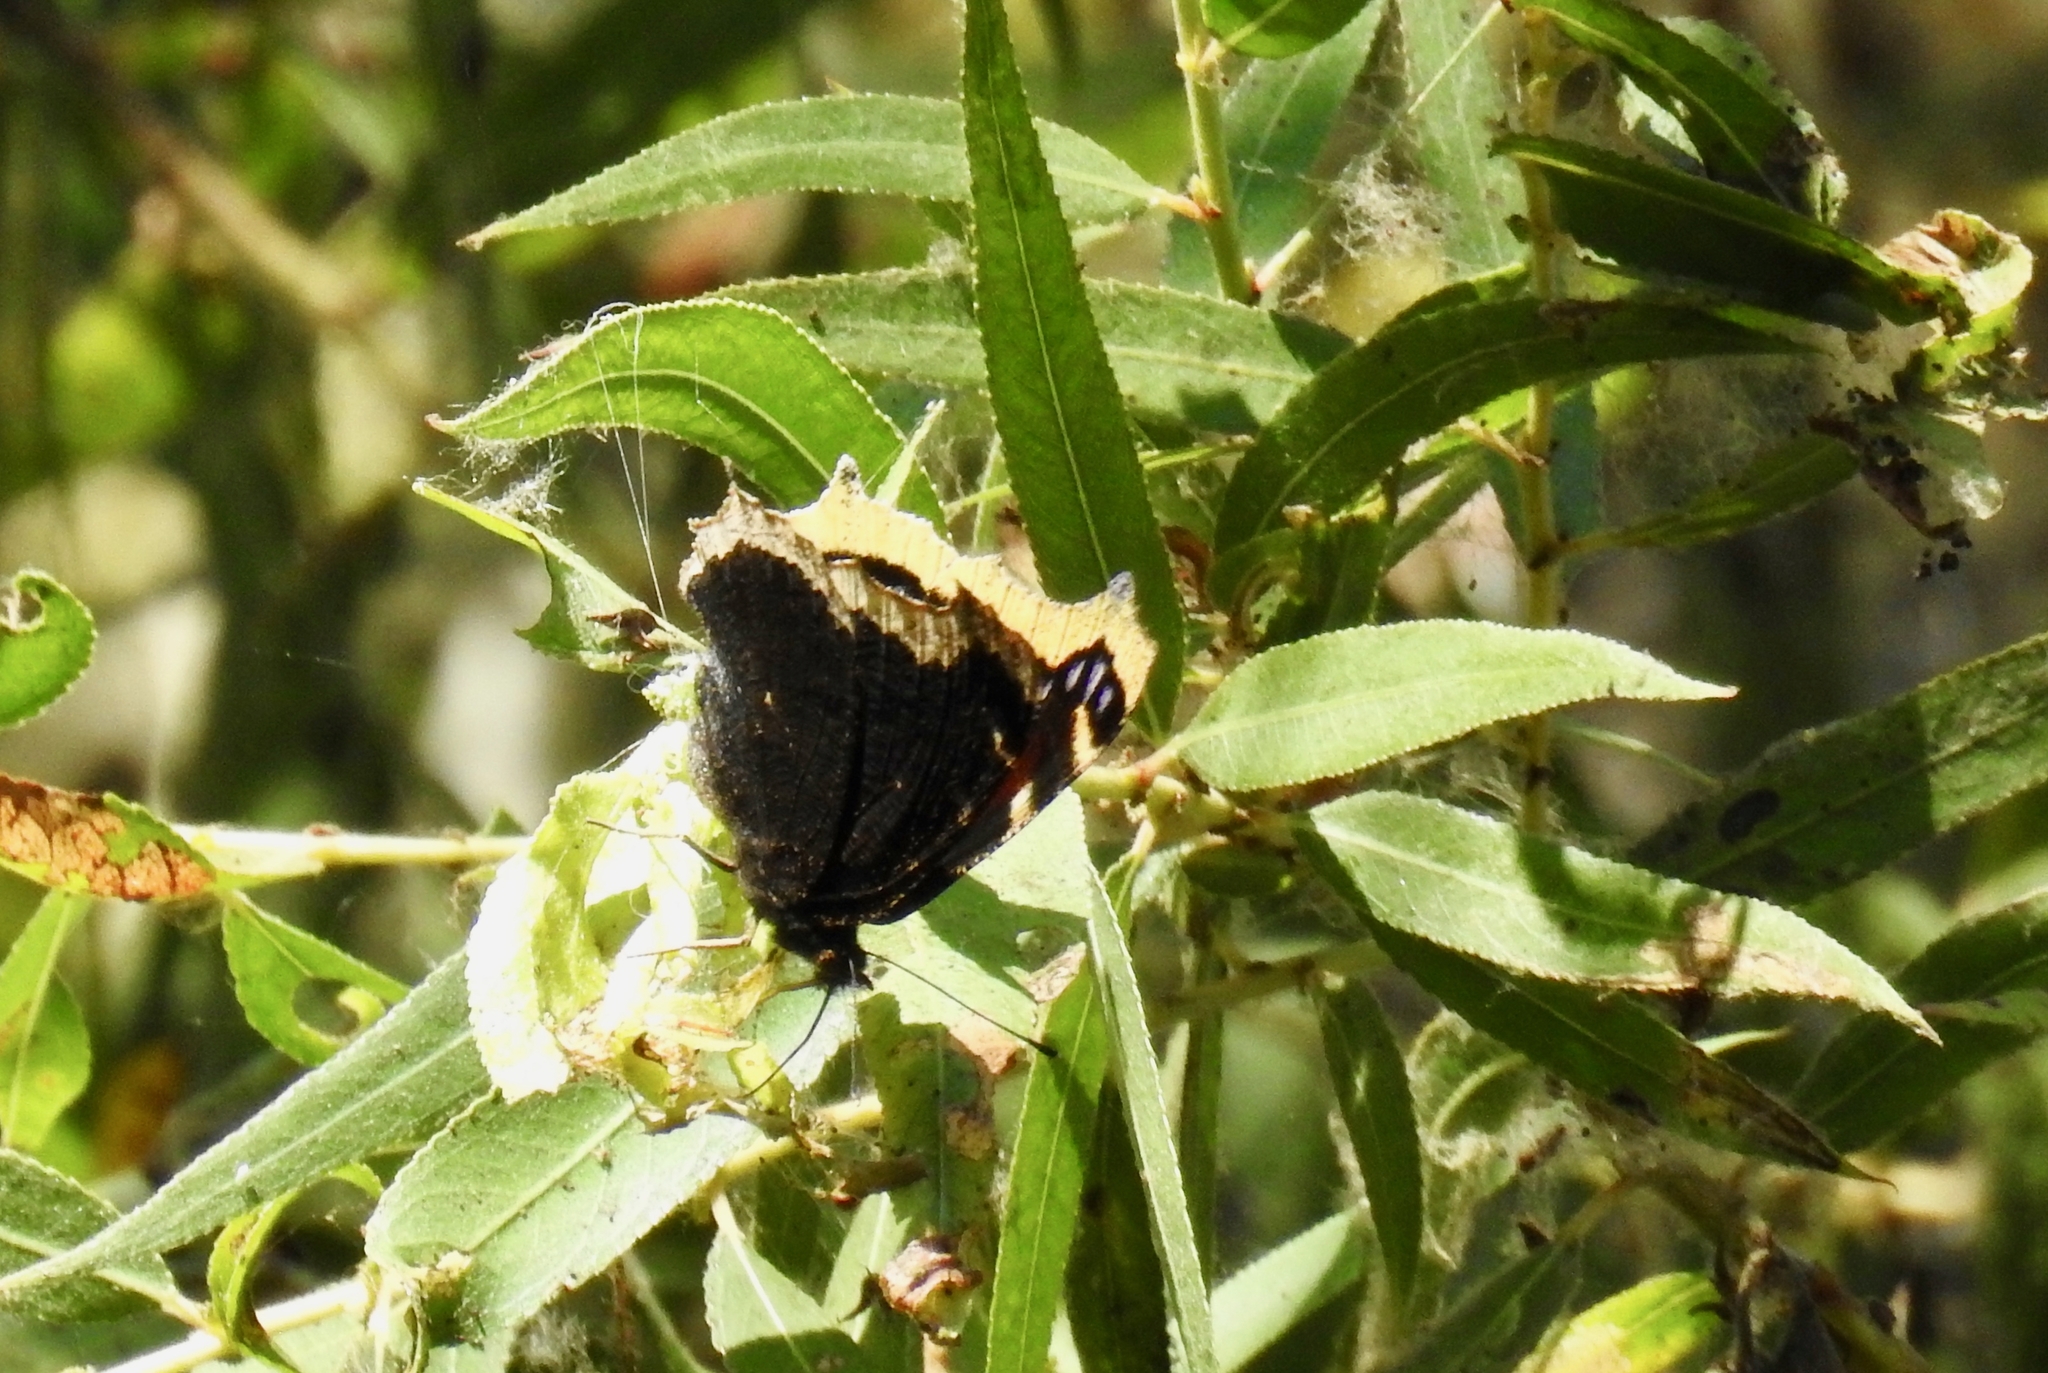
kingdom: Animalia
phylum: Arthropoda
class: Insecta
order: Lepidoptera
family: Nymphalidae
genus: Nymphalis
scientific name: Nymphalis antiopa
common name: Camberwell beauty
